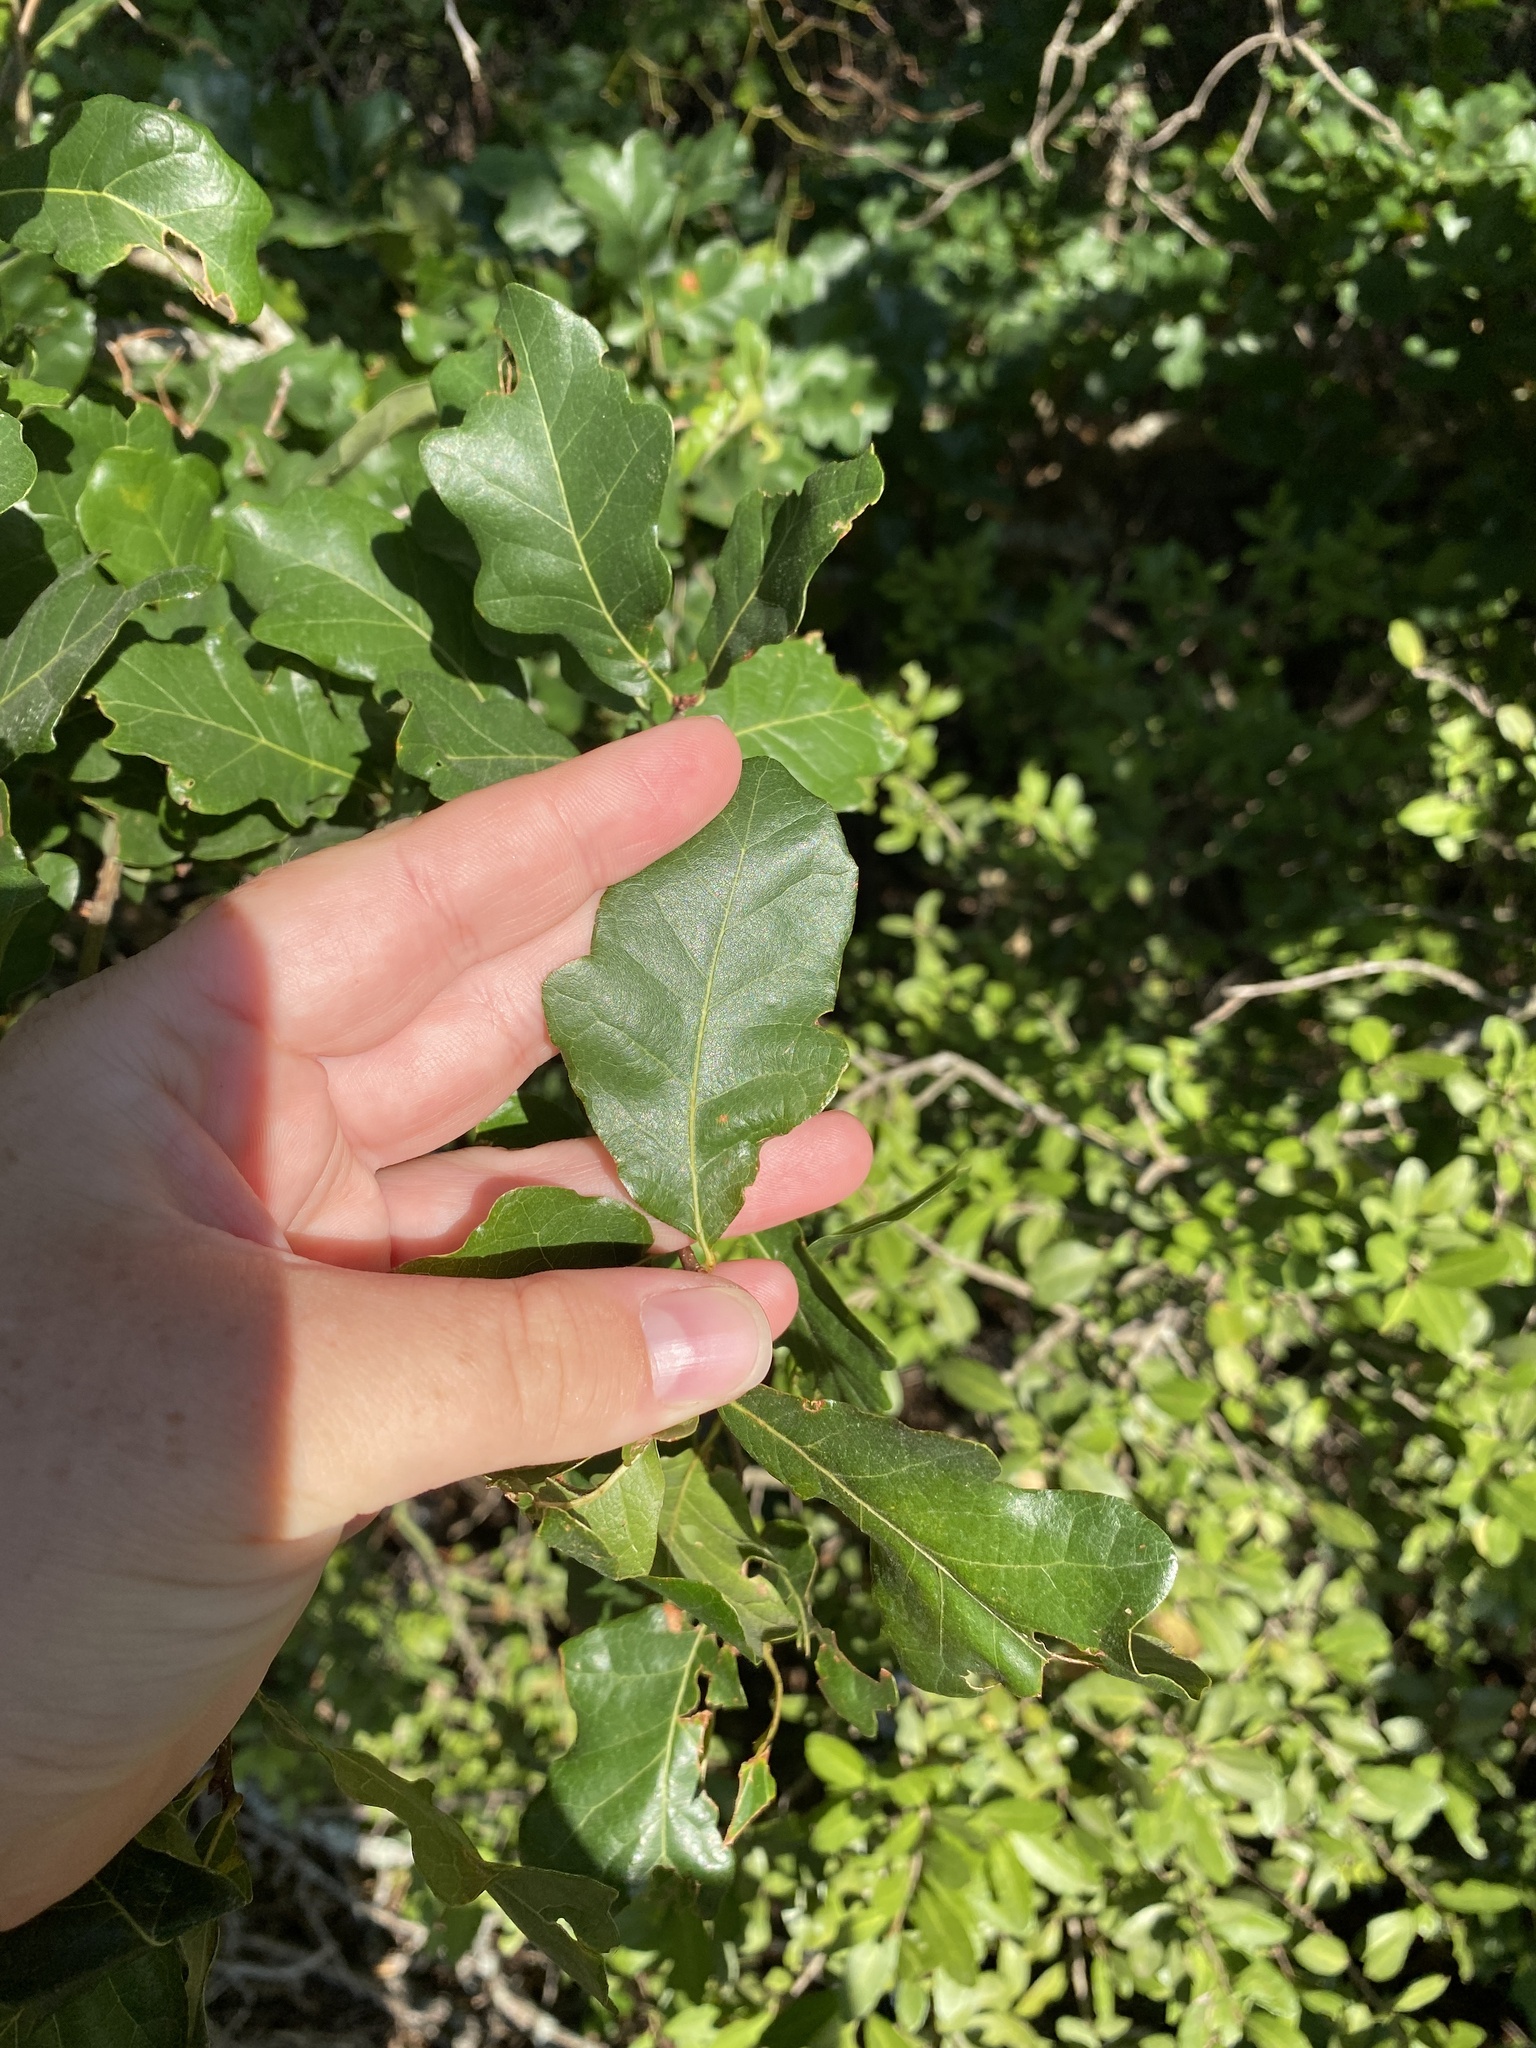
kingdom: Plantae
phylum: Tracheophyta
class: Magnoliopsida
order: Fagales
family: Fagaceae
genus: Quercus
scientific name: Quercus sinuata
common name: Durand oak
